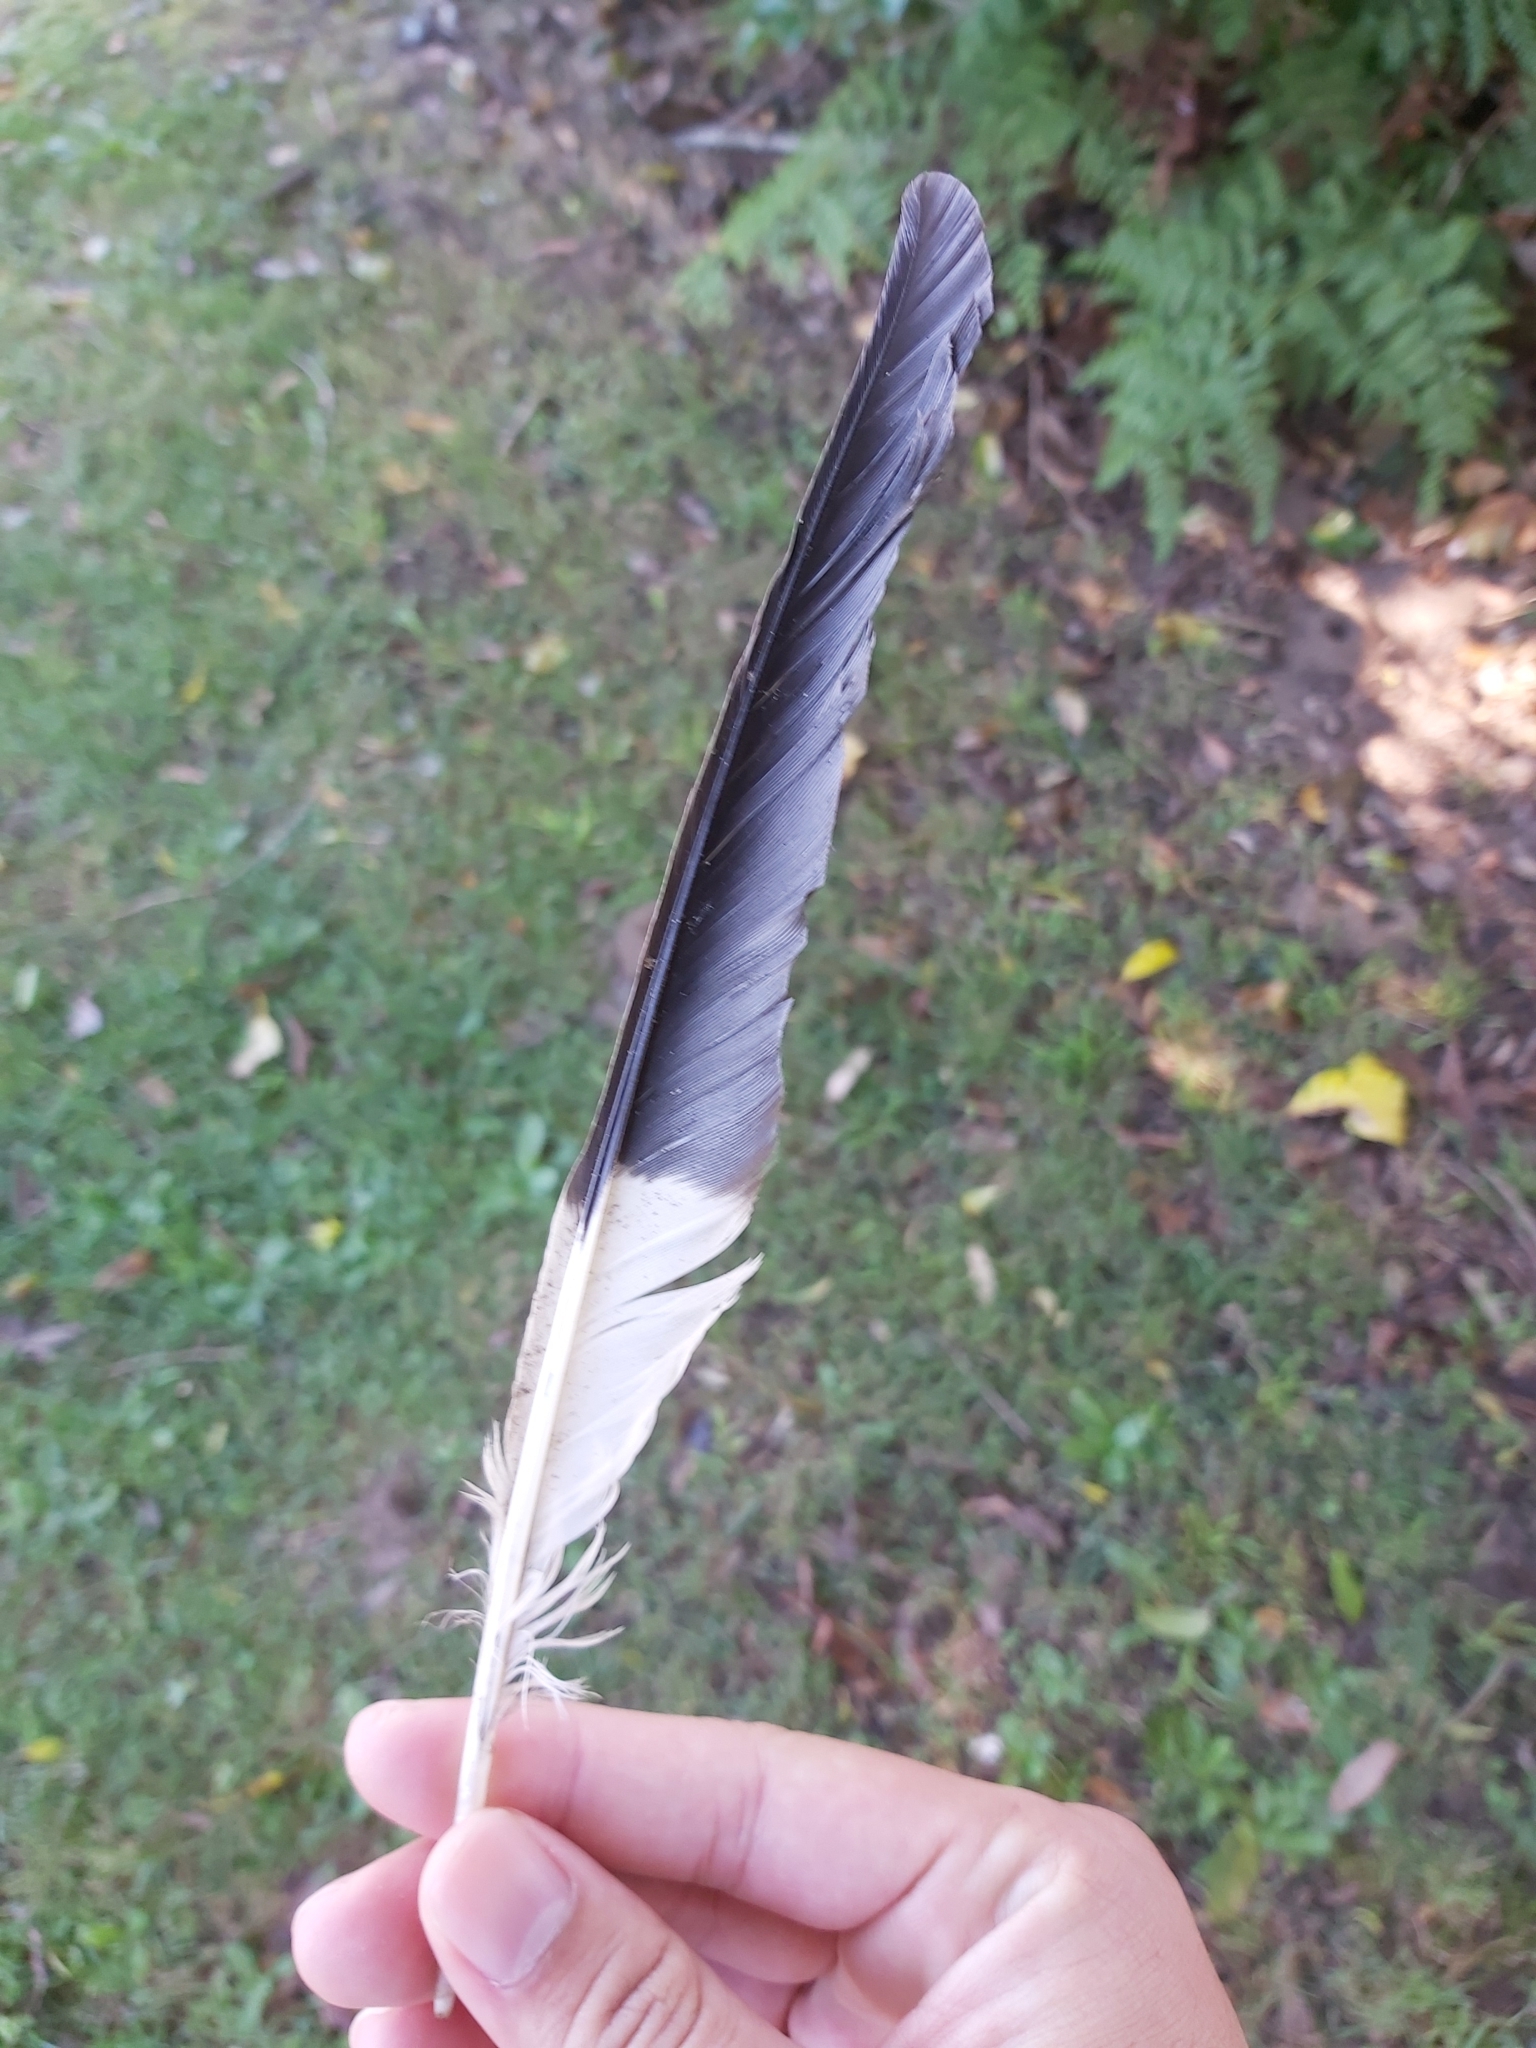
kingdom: Animalia
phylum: Chordata
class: Aves
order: Passeriformes
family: Cracticidae
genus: Strepera
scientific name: Strepera graculina
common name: Pied currawong
